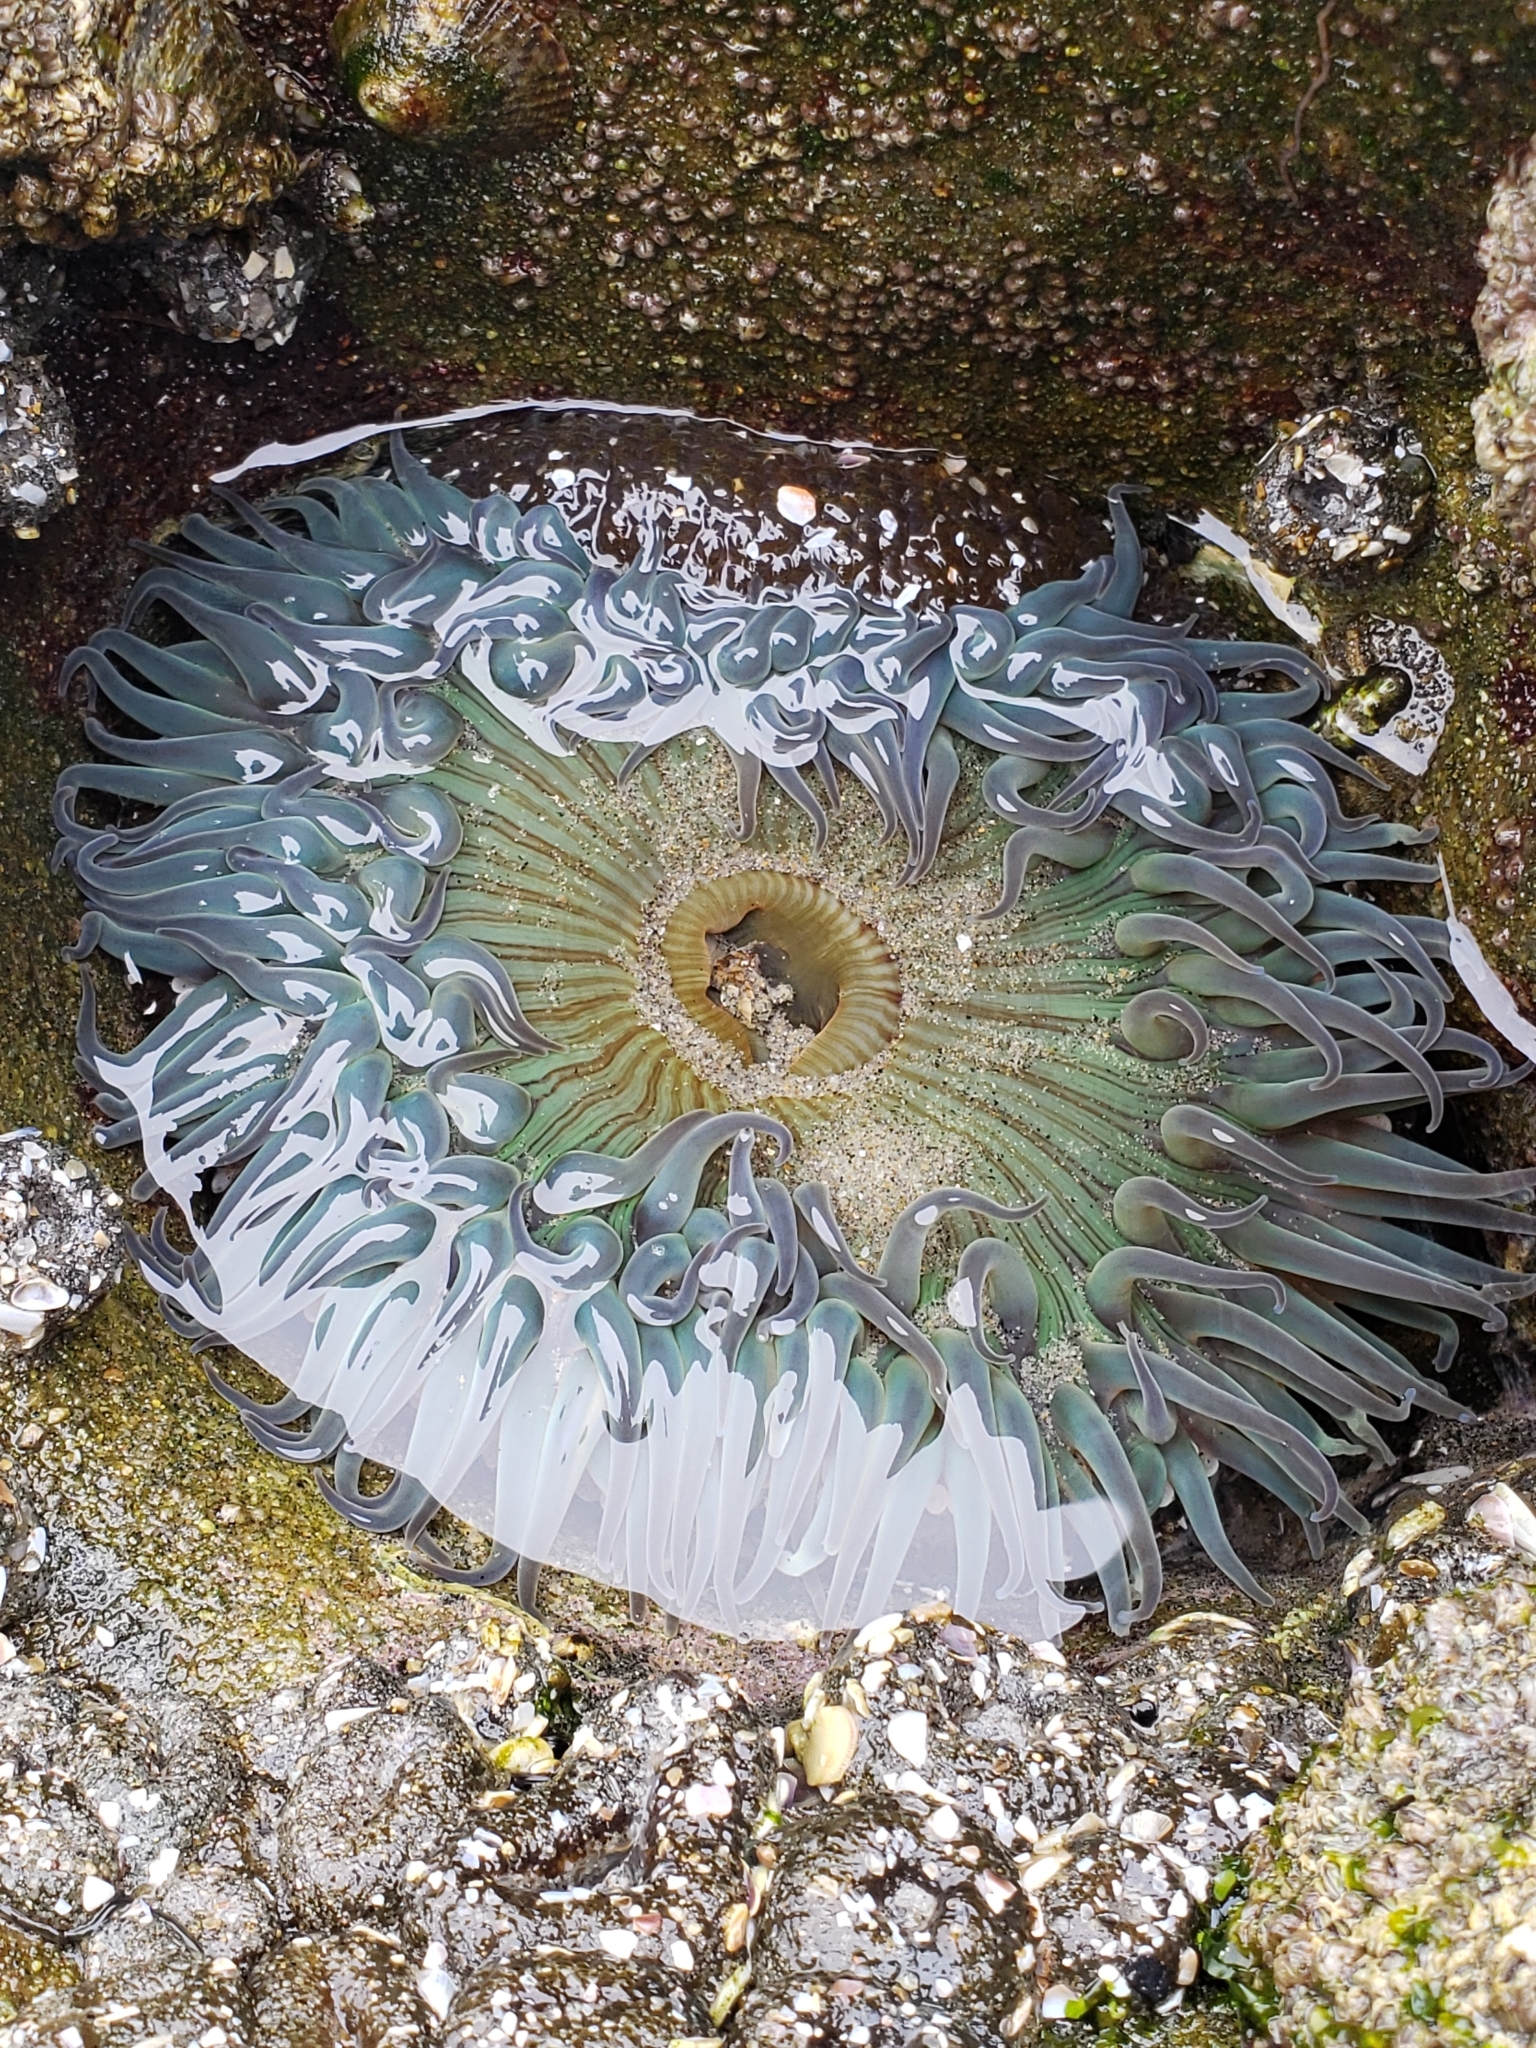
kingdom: Animalia
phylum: Cnidaria
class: Anthozoa
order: Actiniaria
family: Actiniidae
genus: Anthopleura
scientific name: Anthopleura sola
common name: Sun anemone
